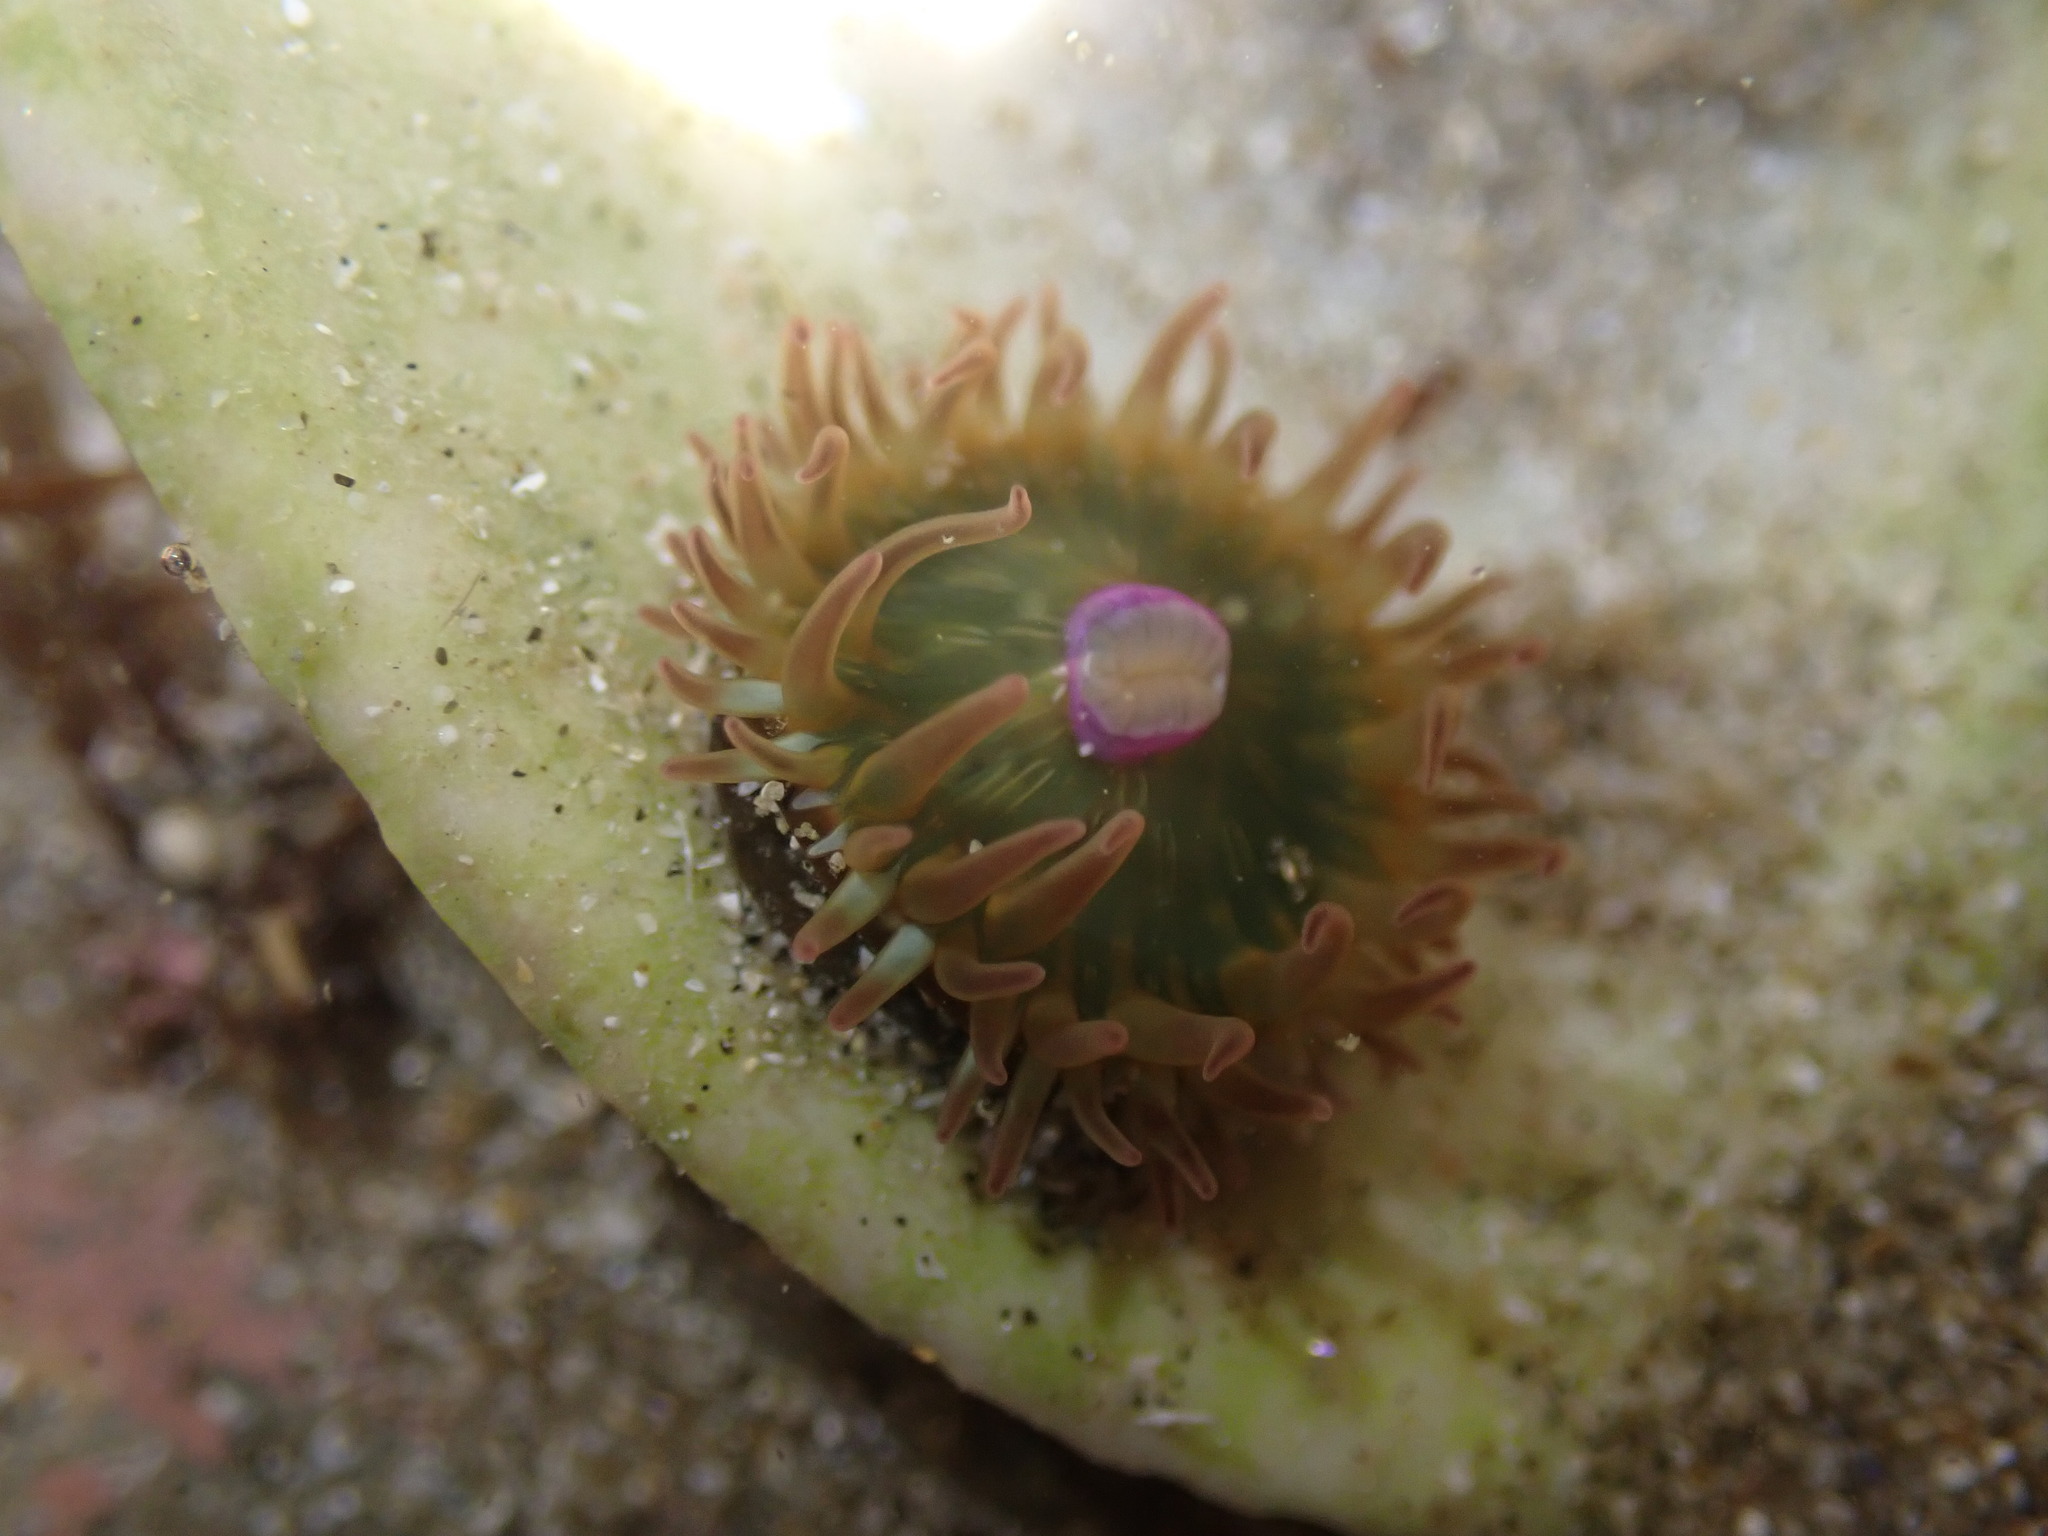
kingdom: Animalia
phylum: Cnidaria
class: Anthozoa
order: Actiniaria
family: Hormathiidae
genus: Handactis
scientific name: Handactis nutrix
